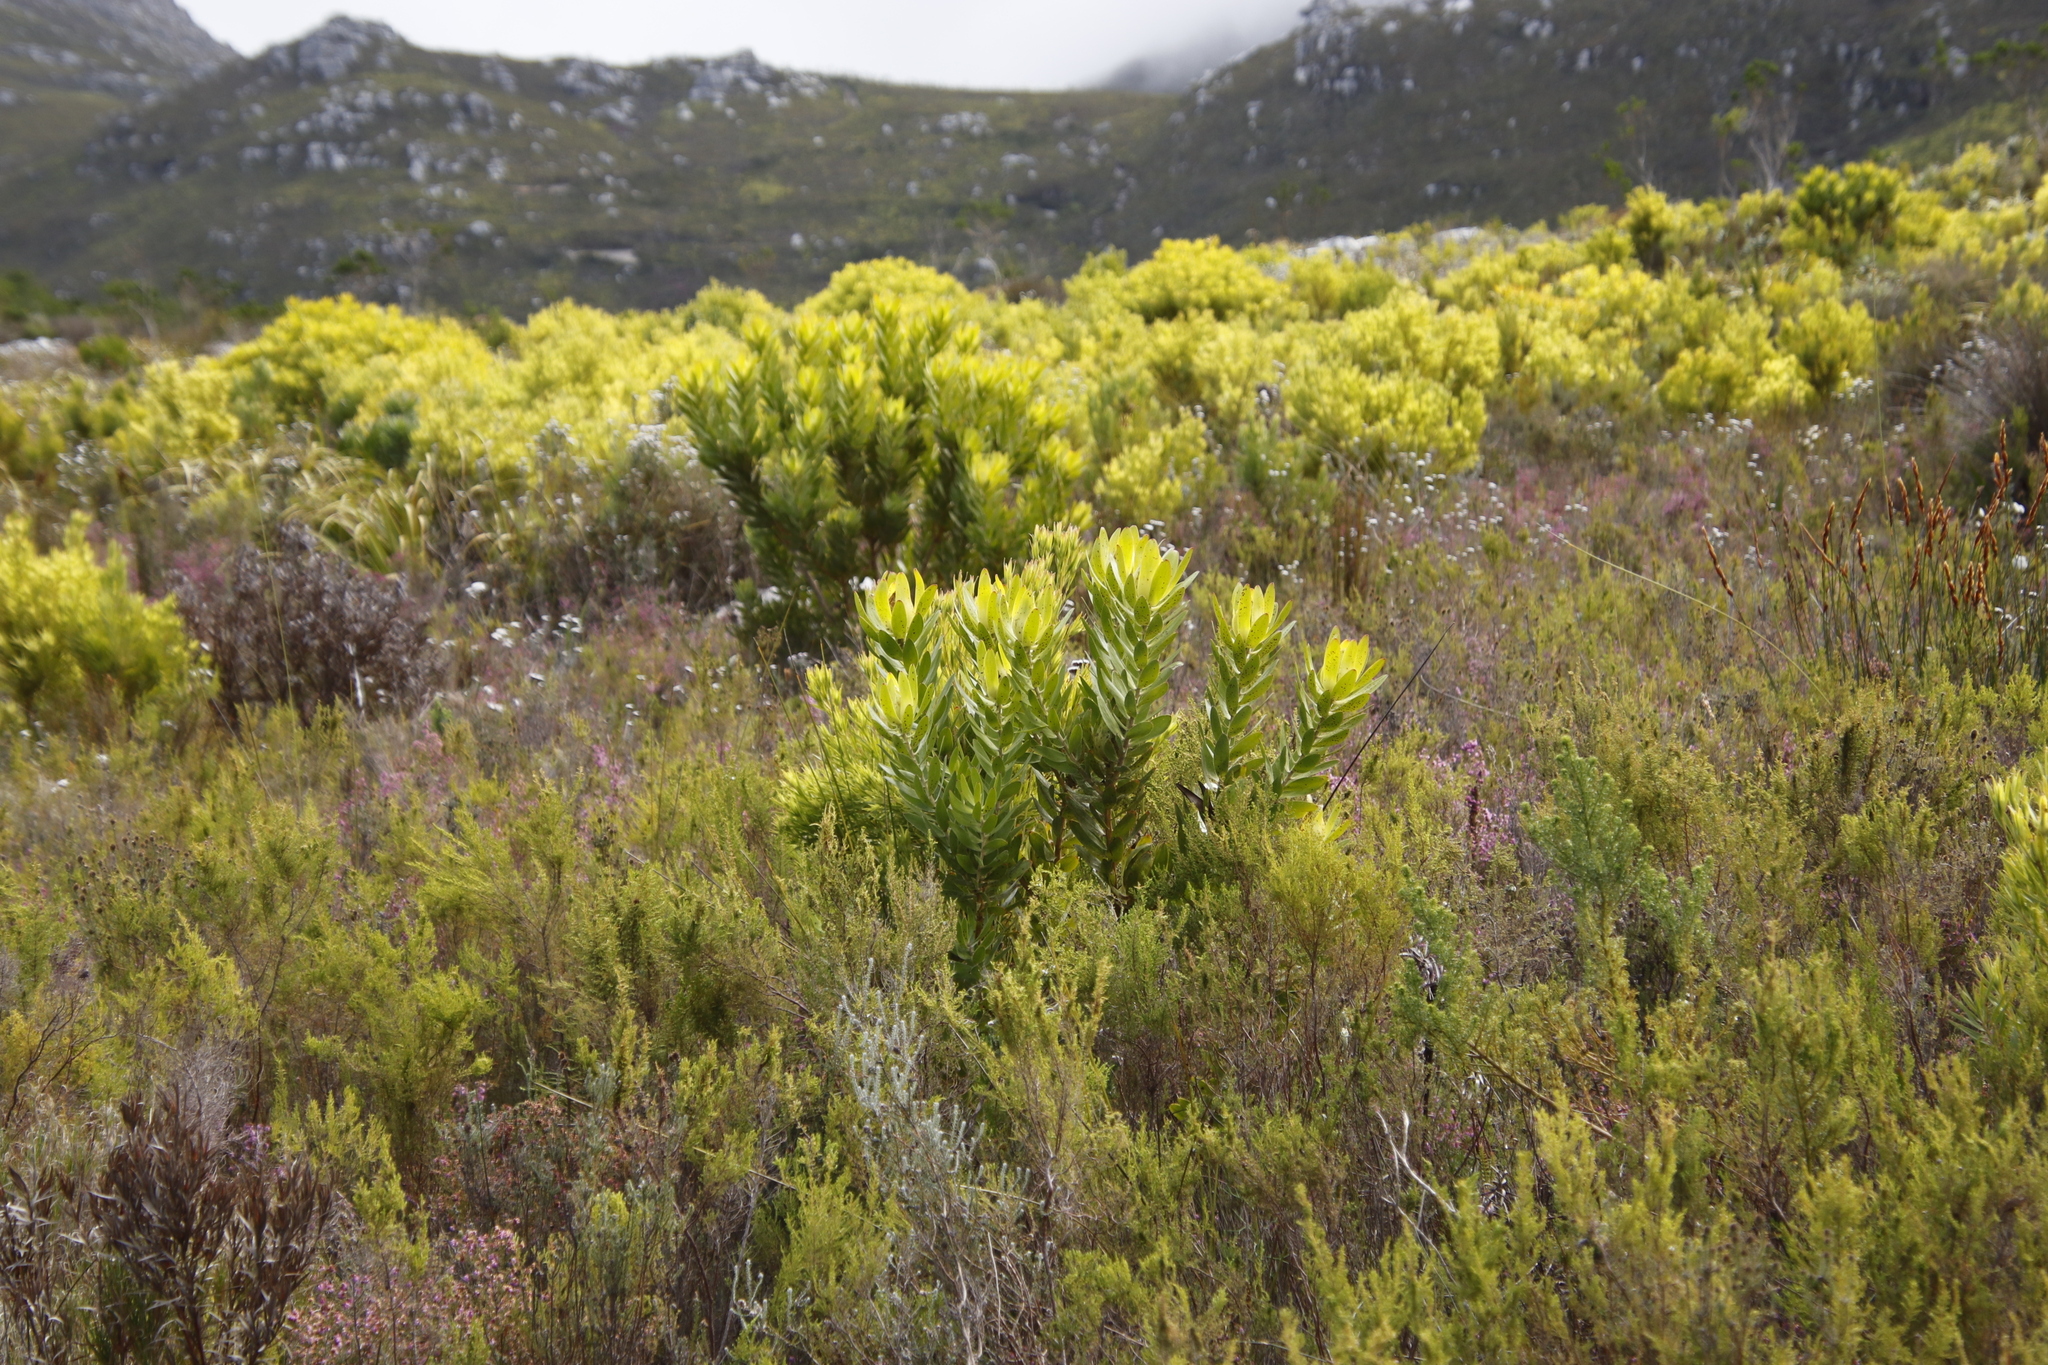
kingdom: Plantae
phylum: Tracheophyta
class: Magnoliopsida
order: Proteales
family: Proteaceae
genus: Leucadendron
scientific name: Leucadendron laureolum
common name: Golden sunshinebush
